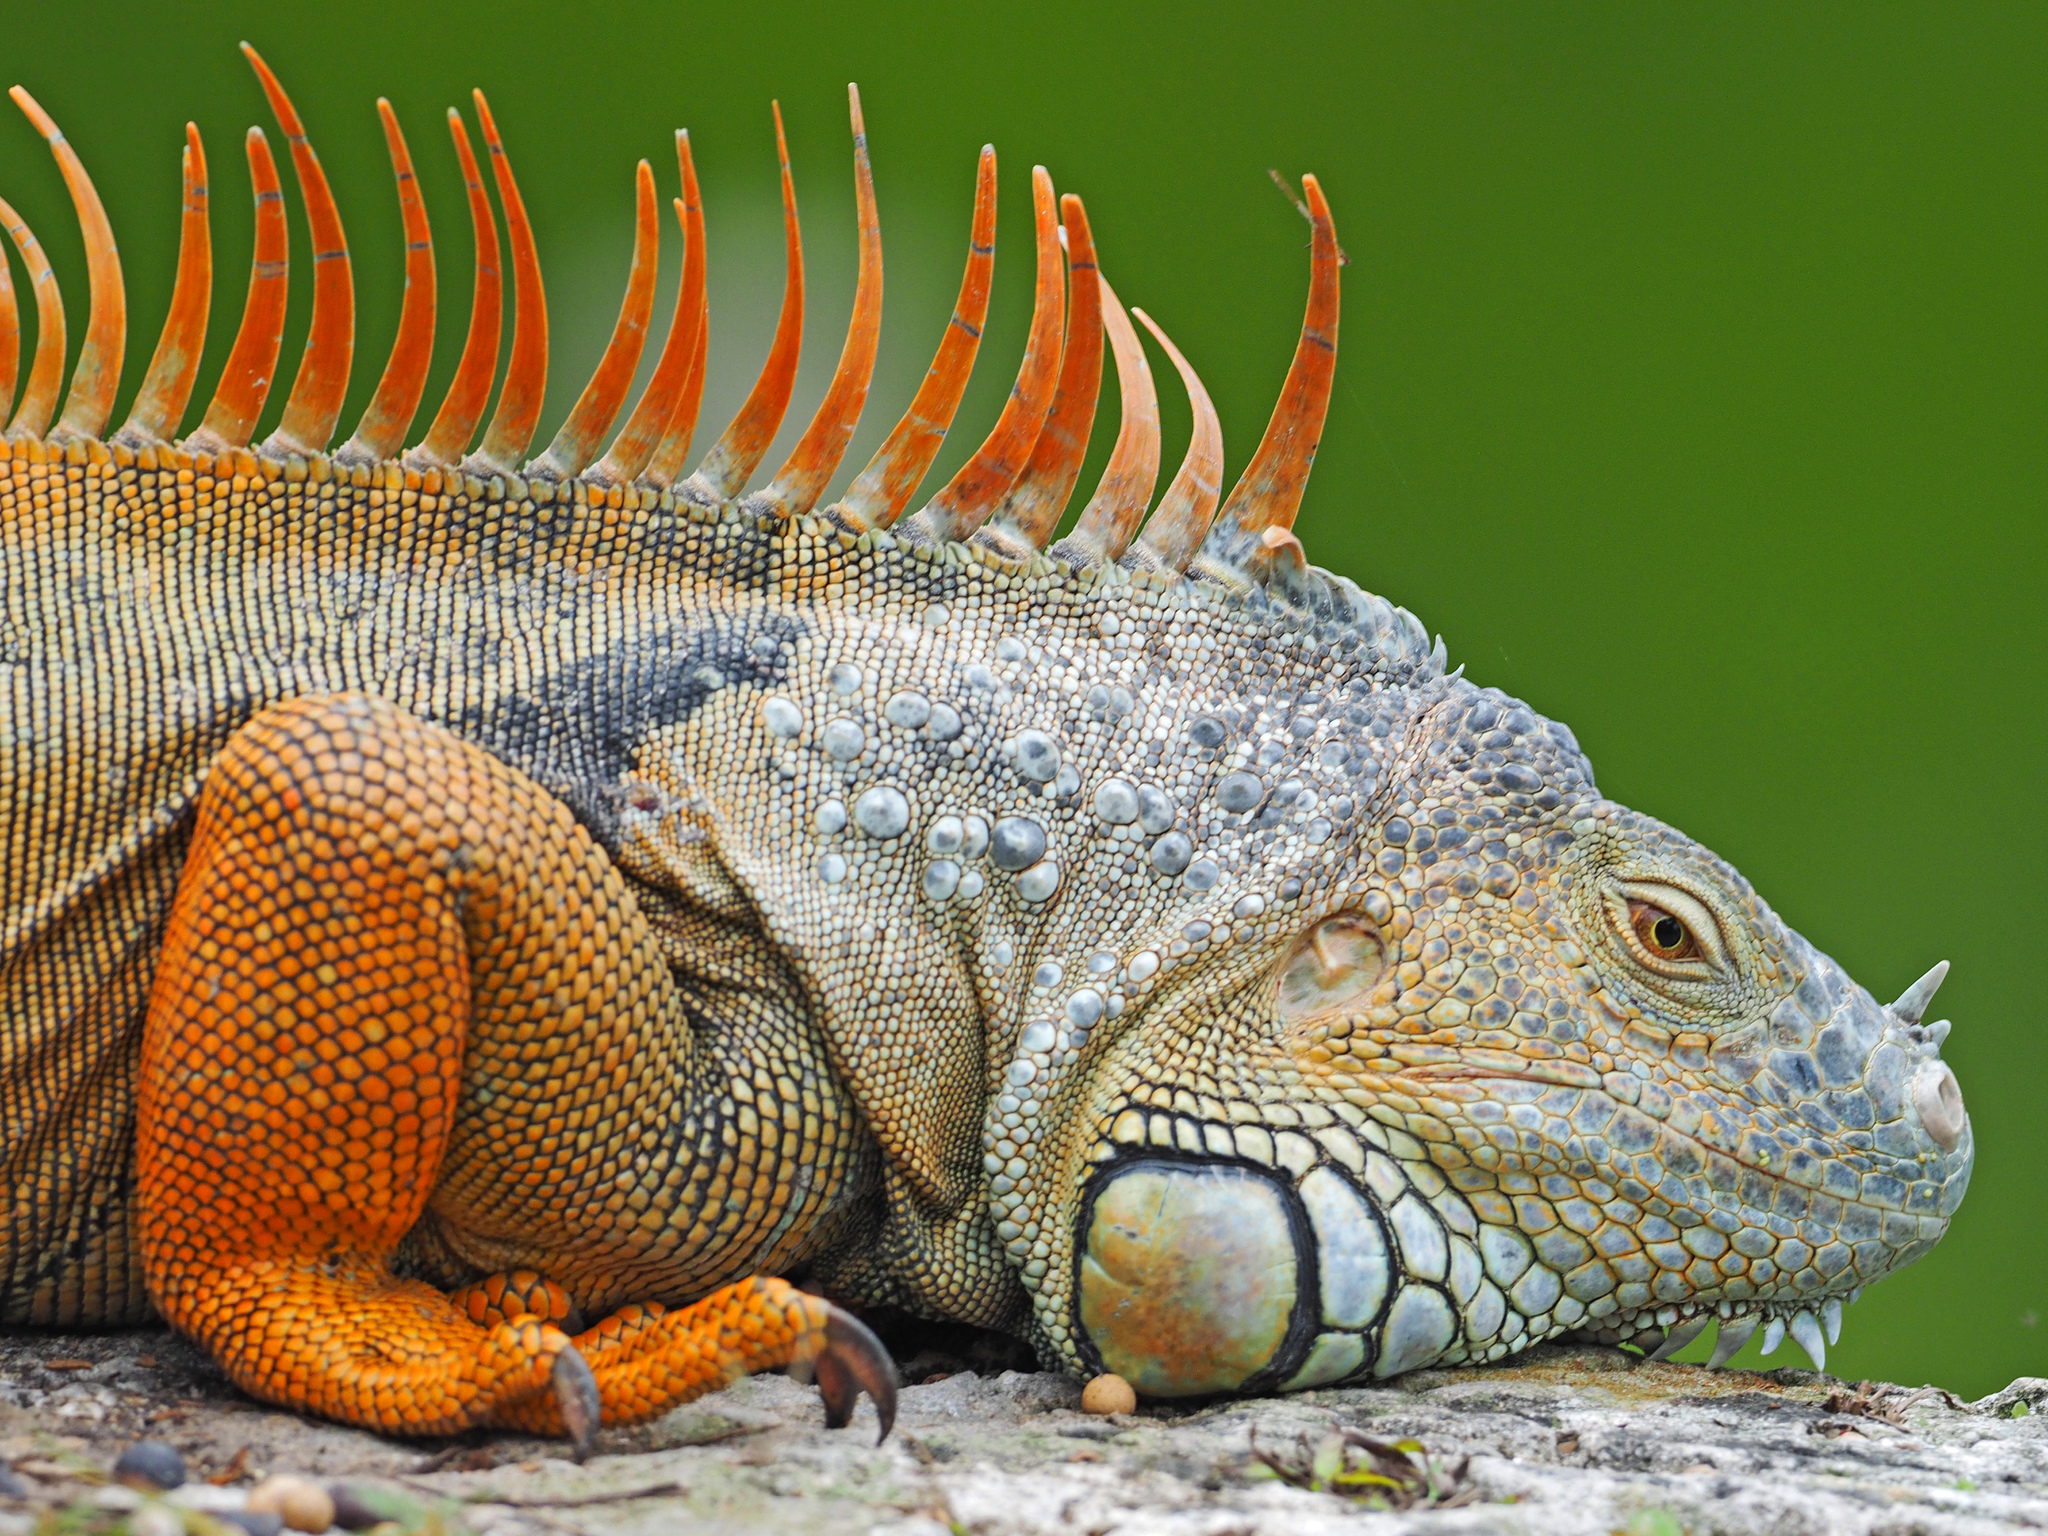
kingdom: Animalia
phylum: Chordata
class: Squamata
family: Iguanidae
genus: Iguana
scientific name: Iguana iguana
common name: Green iguana
